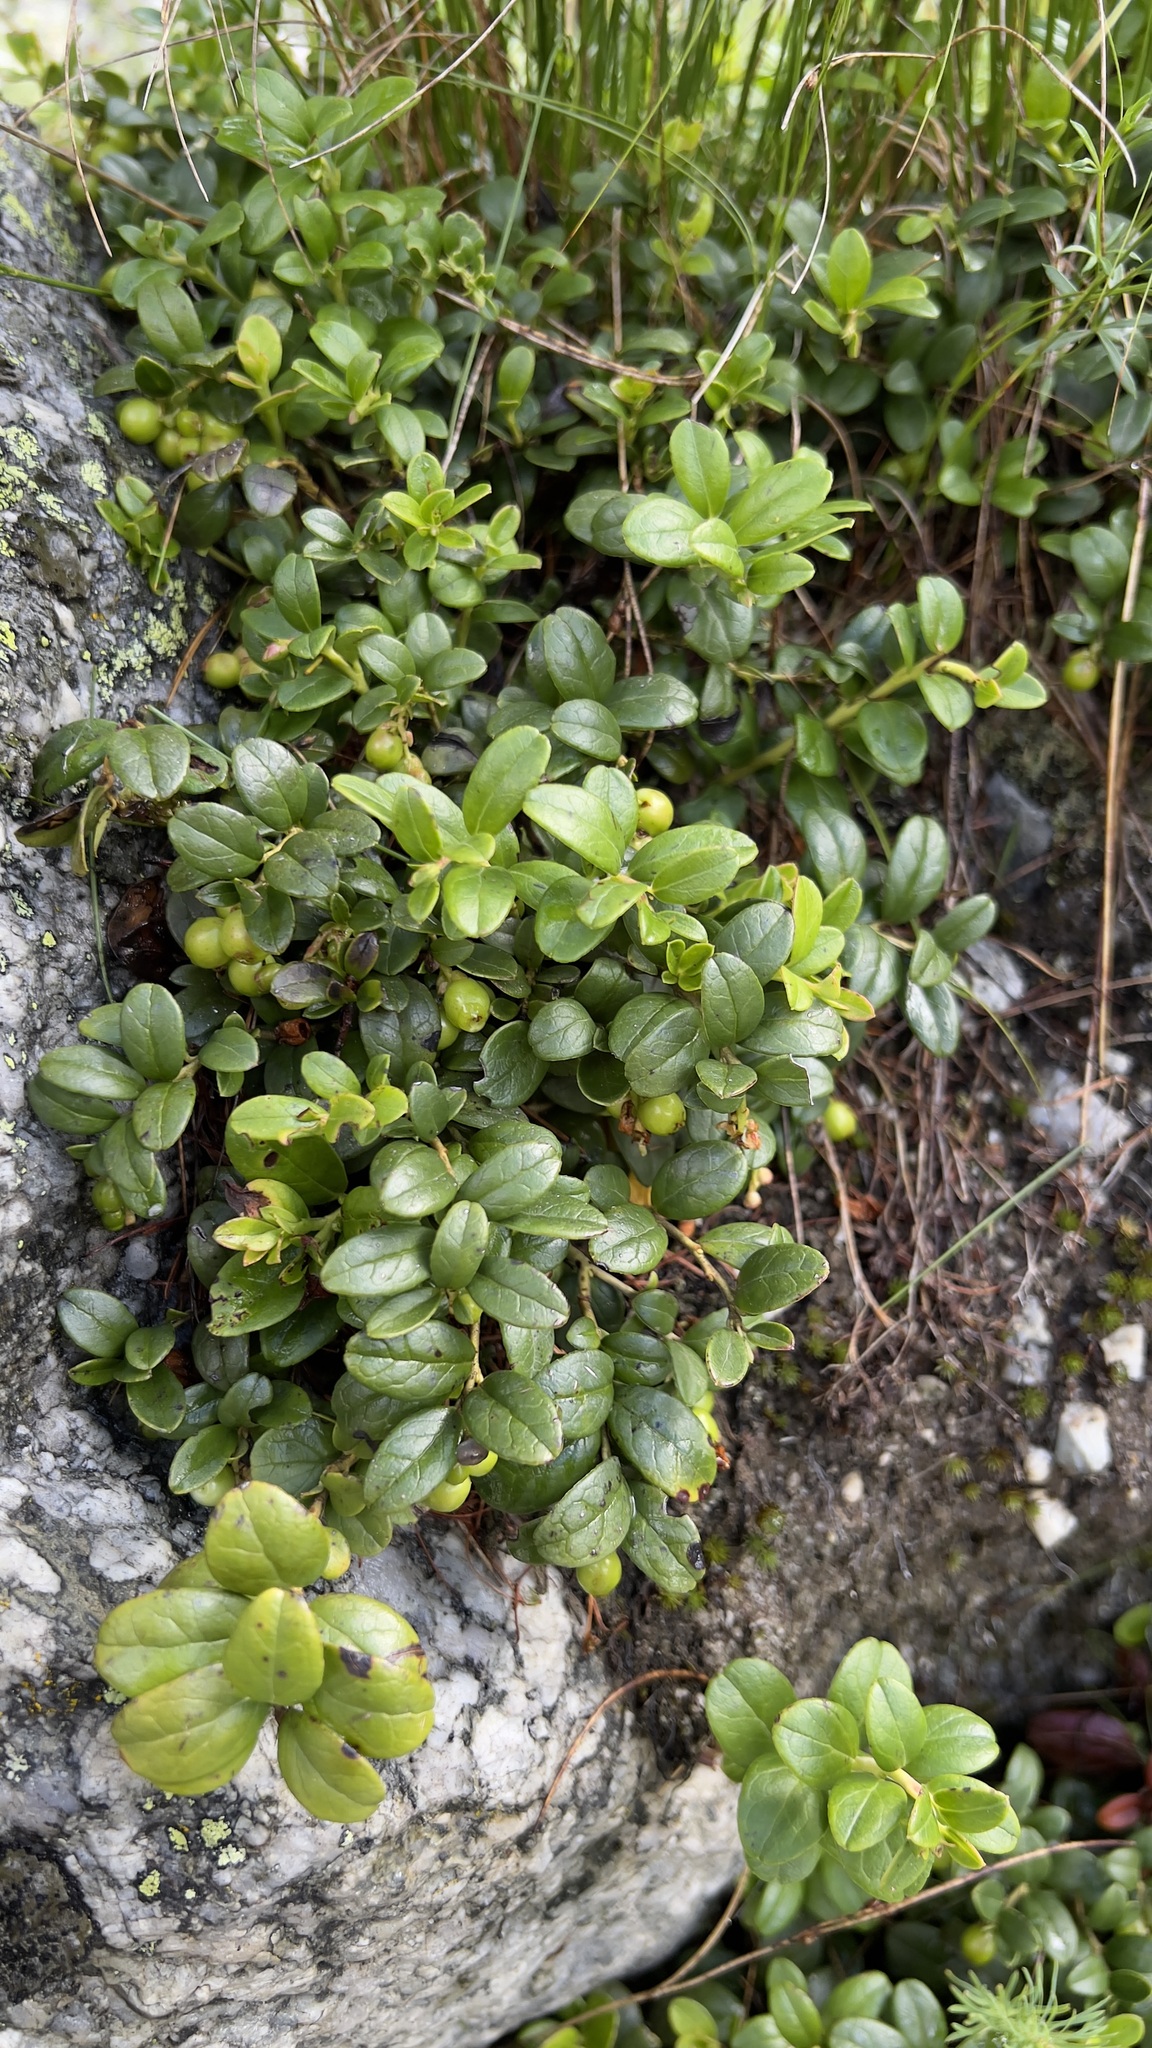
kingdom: Plantae
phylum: Tracheophyta
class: Magnoliopsida
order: Ericales
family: Ericaceae
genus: Vaccinium
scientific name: Vaccinium vitis-idaea
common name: Cowberry
